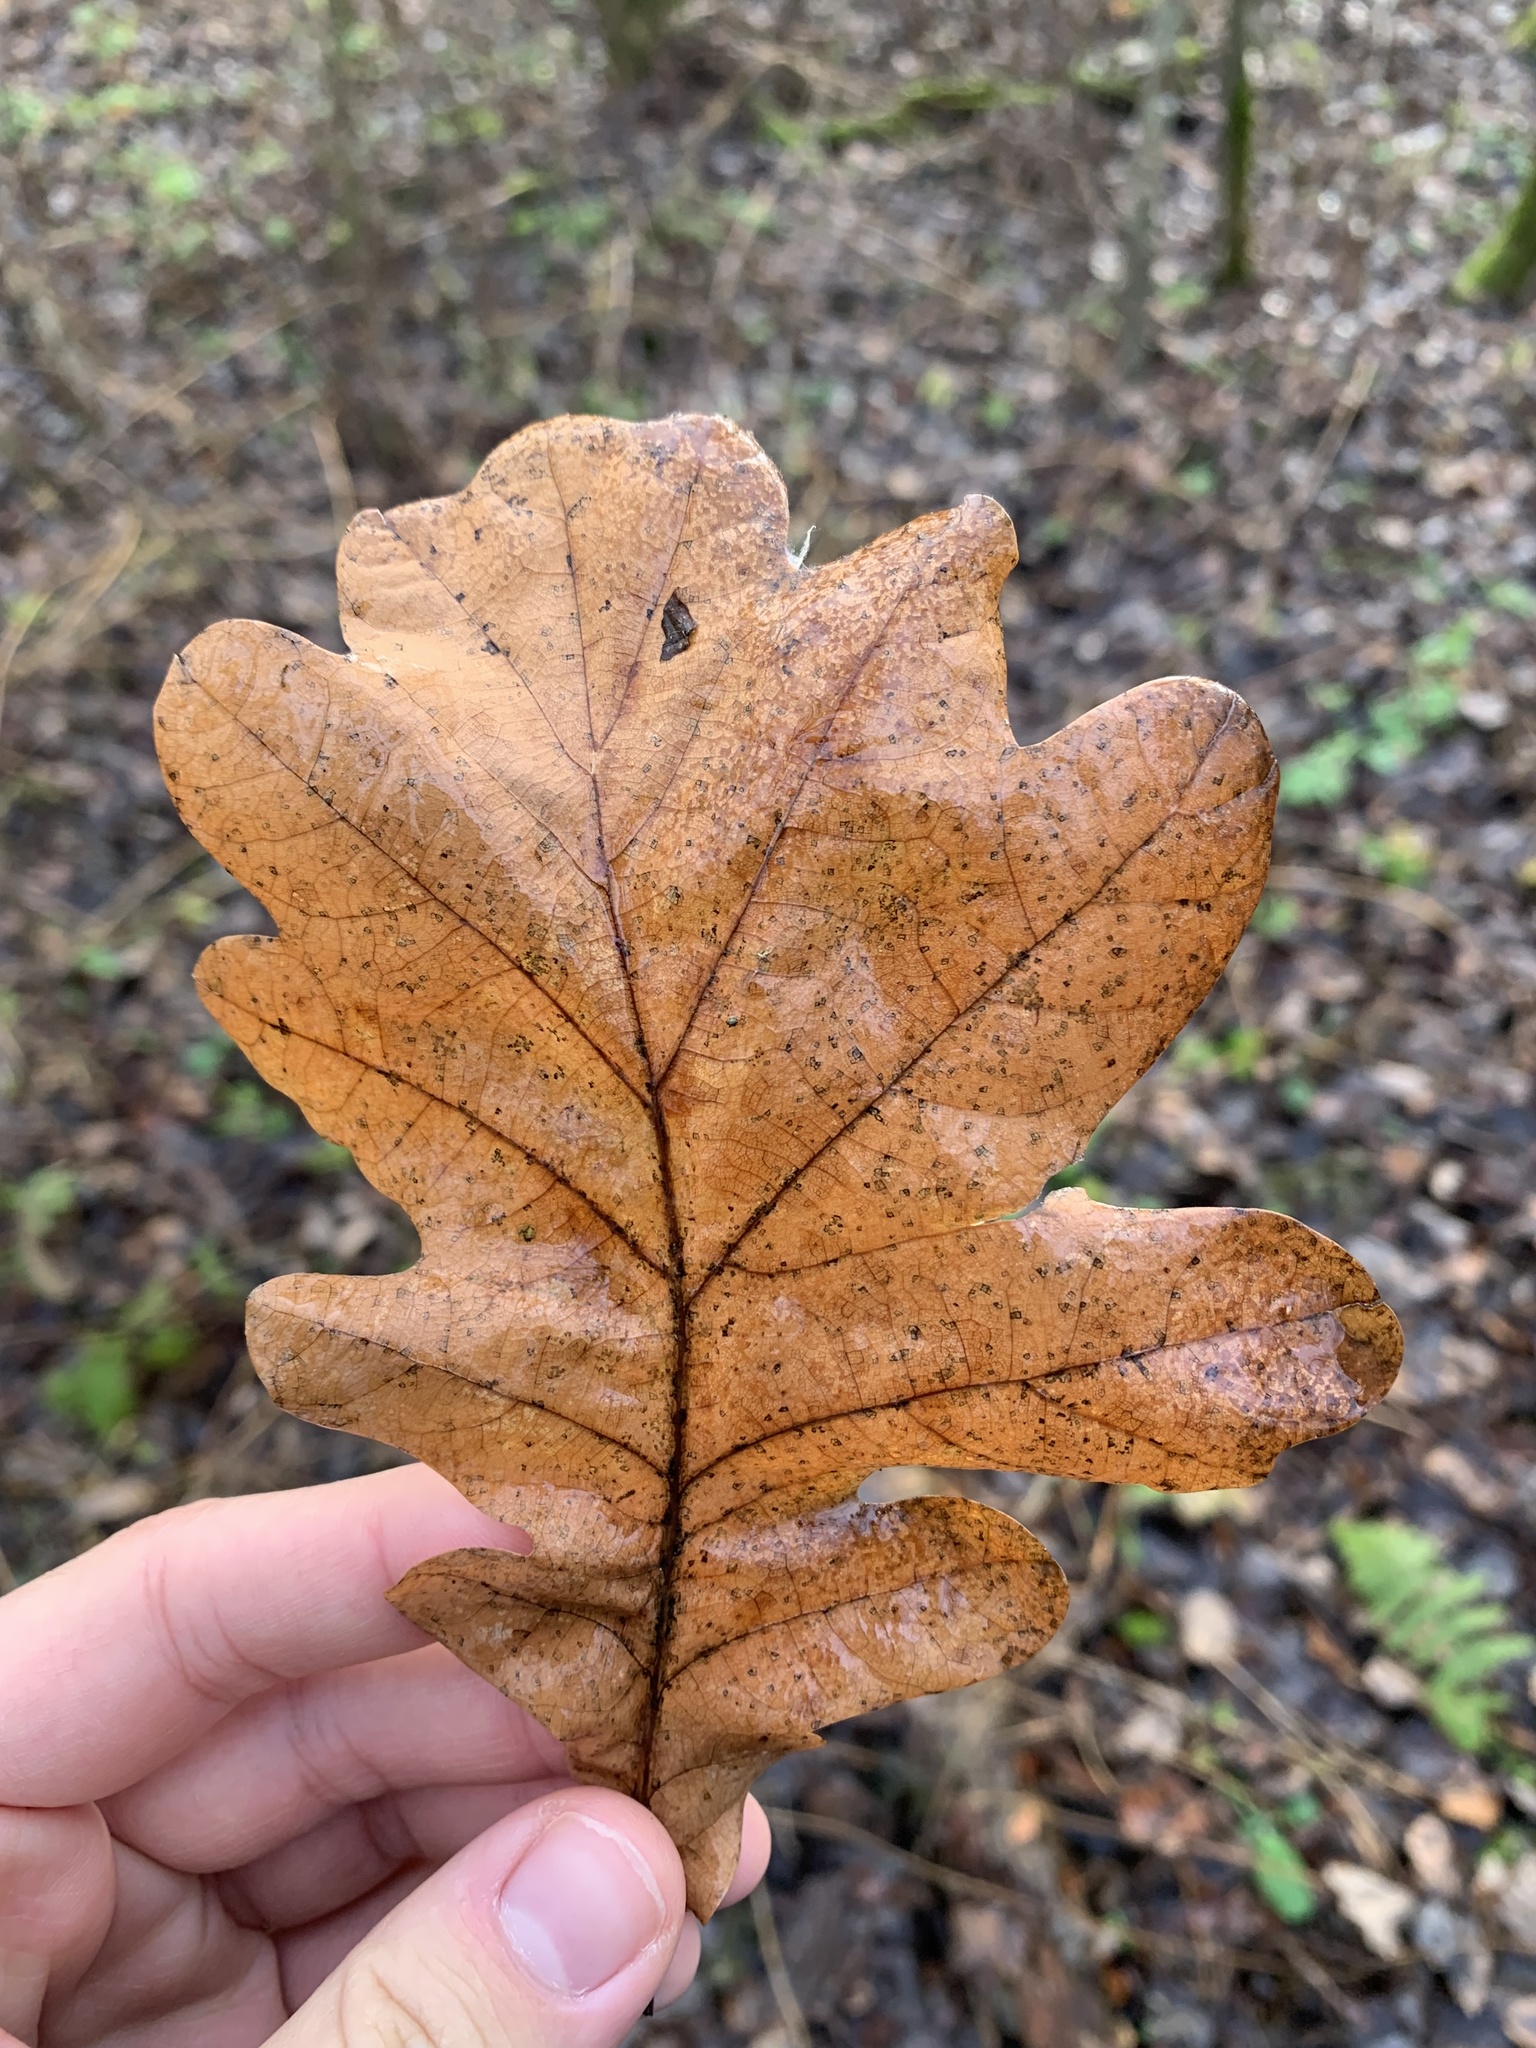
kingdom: Plantae
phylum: Tracheophyta
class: Magnoliopsida
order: Fagales
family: Fagaceae
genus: Quercus
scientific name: Quercus robur
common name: Pedunculate oak
